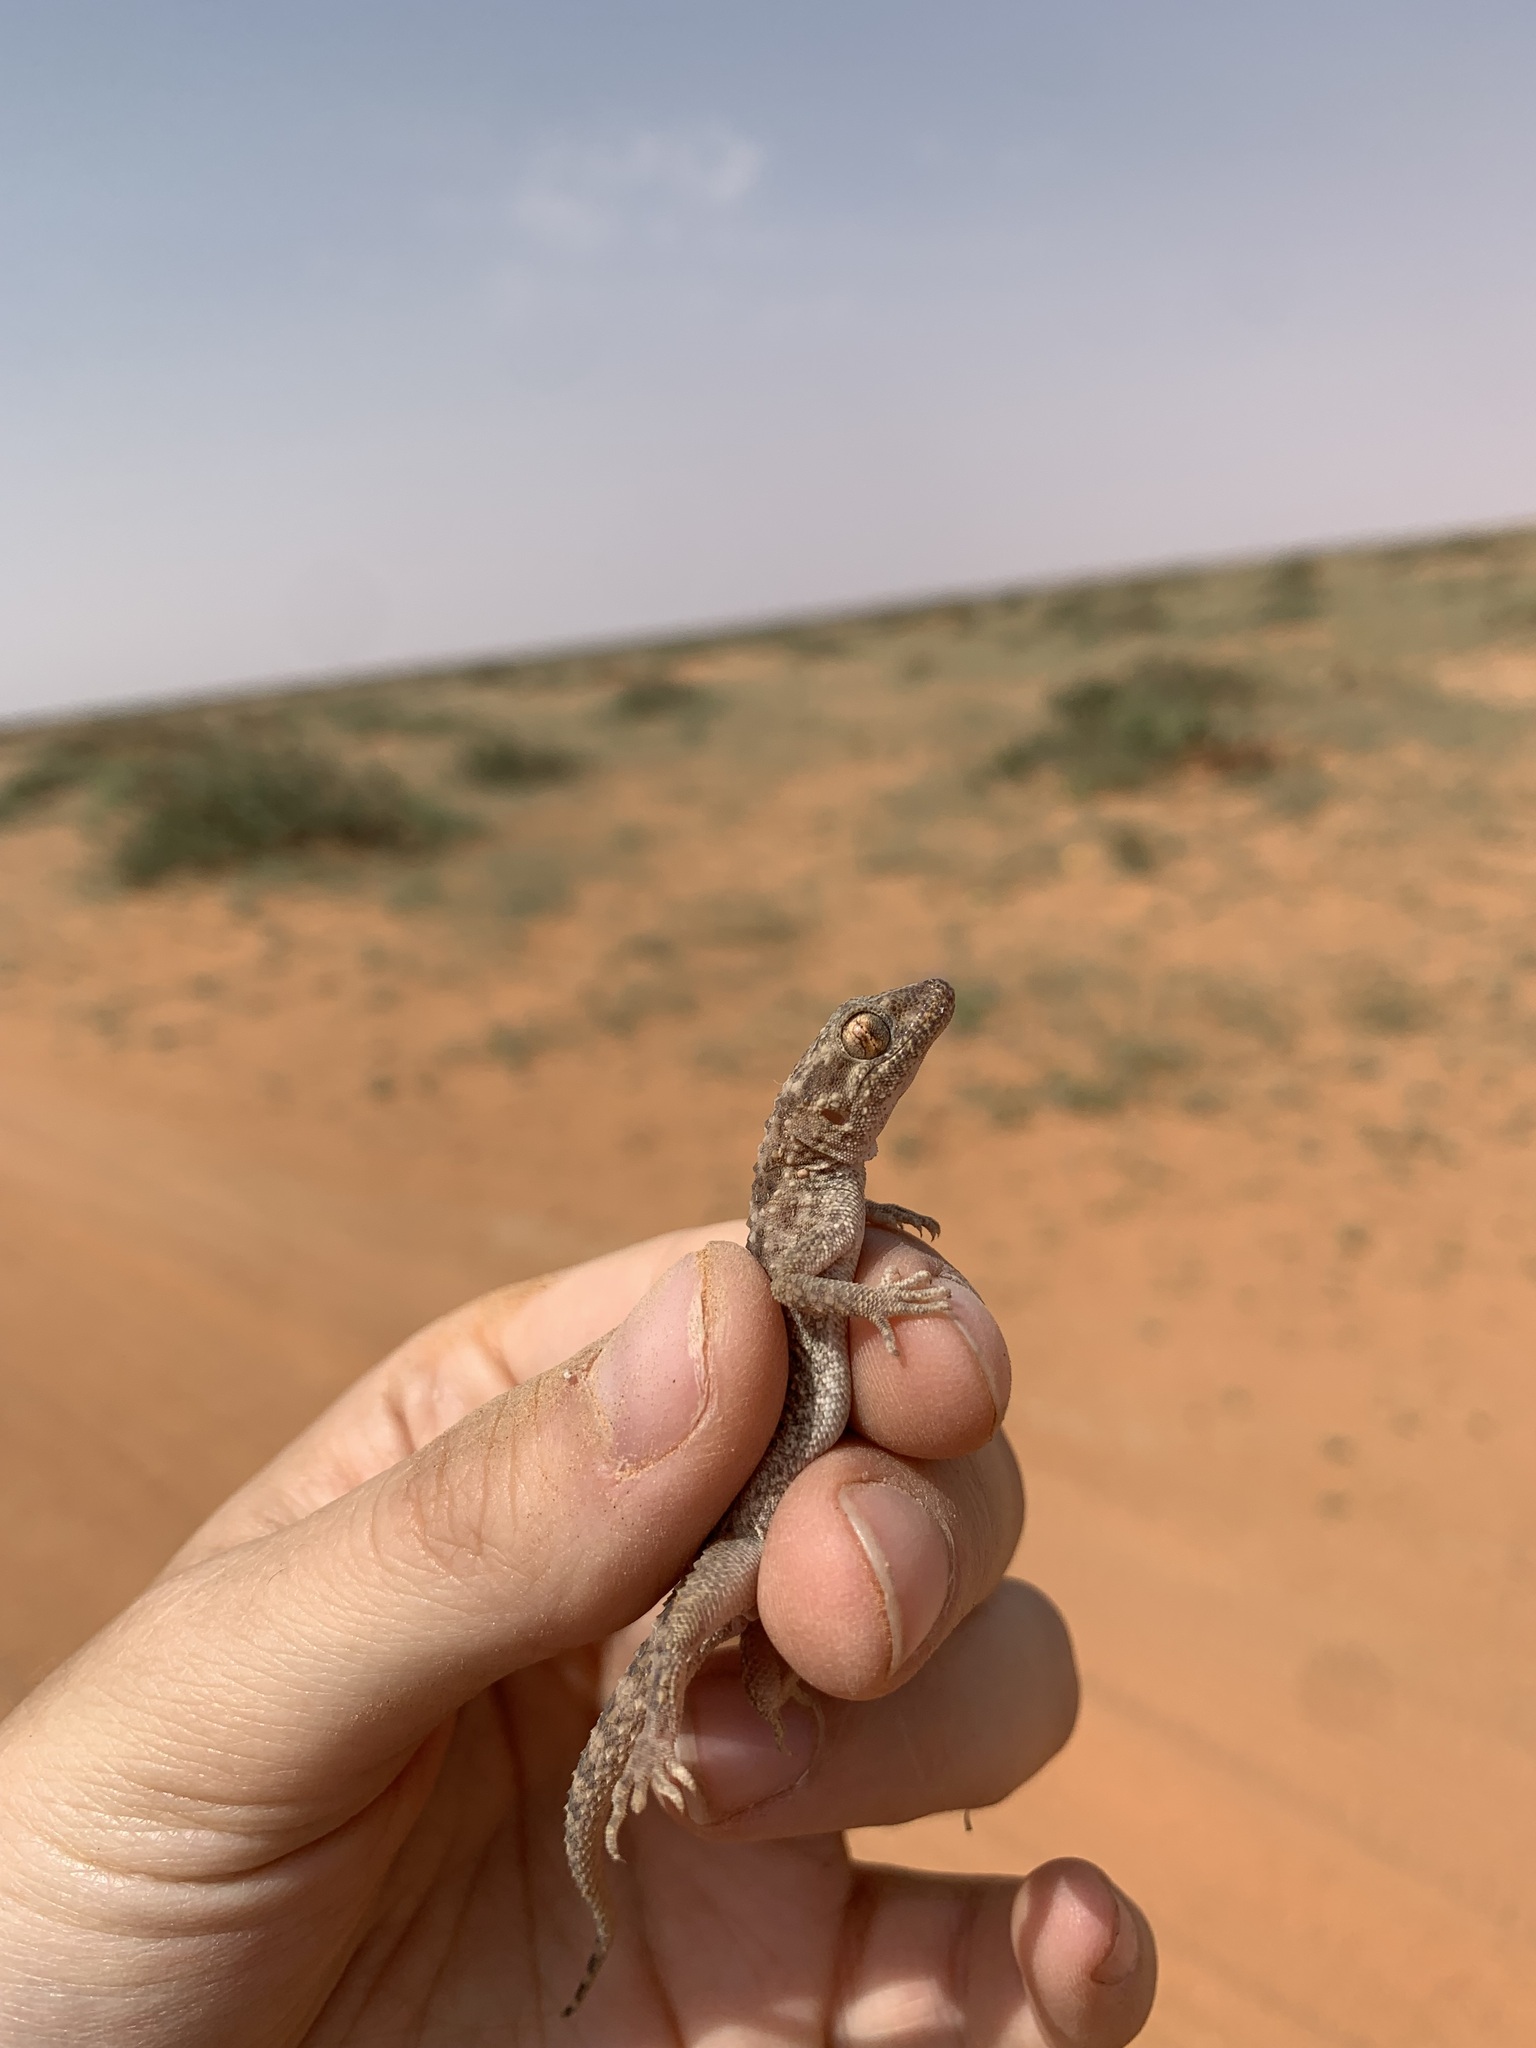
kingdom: Animalia
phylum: Chordata
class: Squamata
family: Gekkonidae
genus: Bunopus
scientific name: Bunopus tuberculatus
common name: Southern tuberculated gecko
